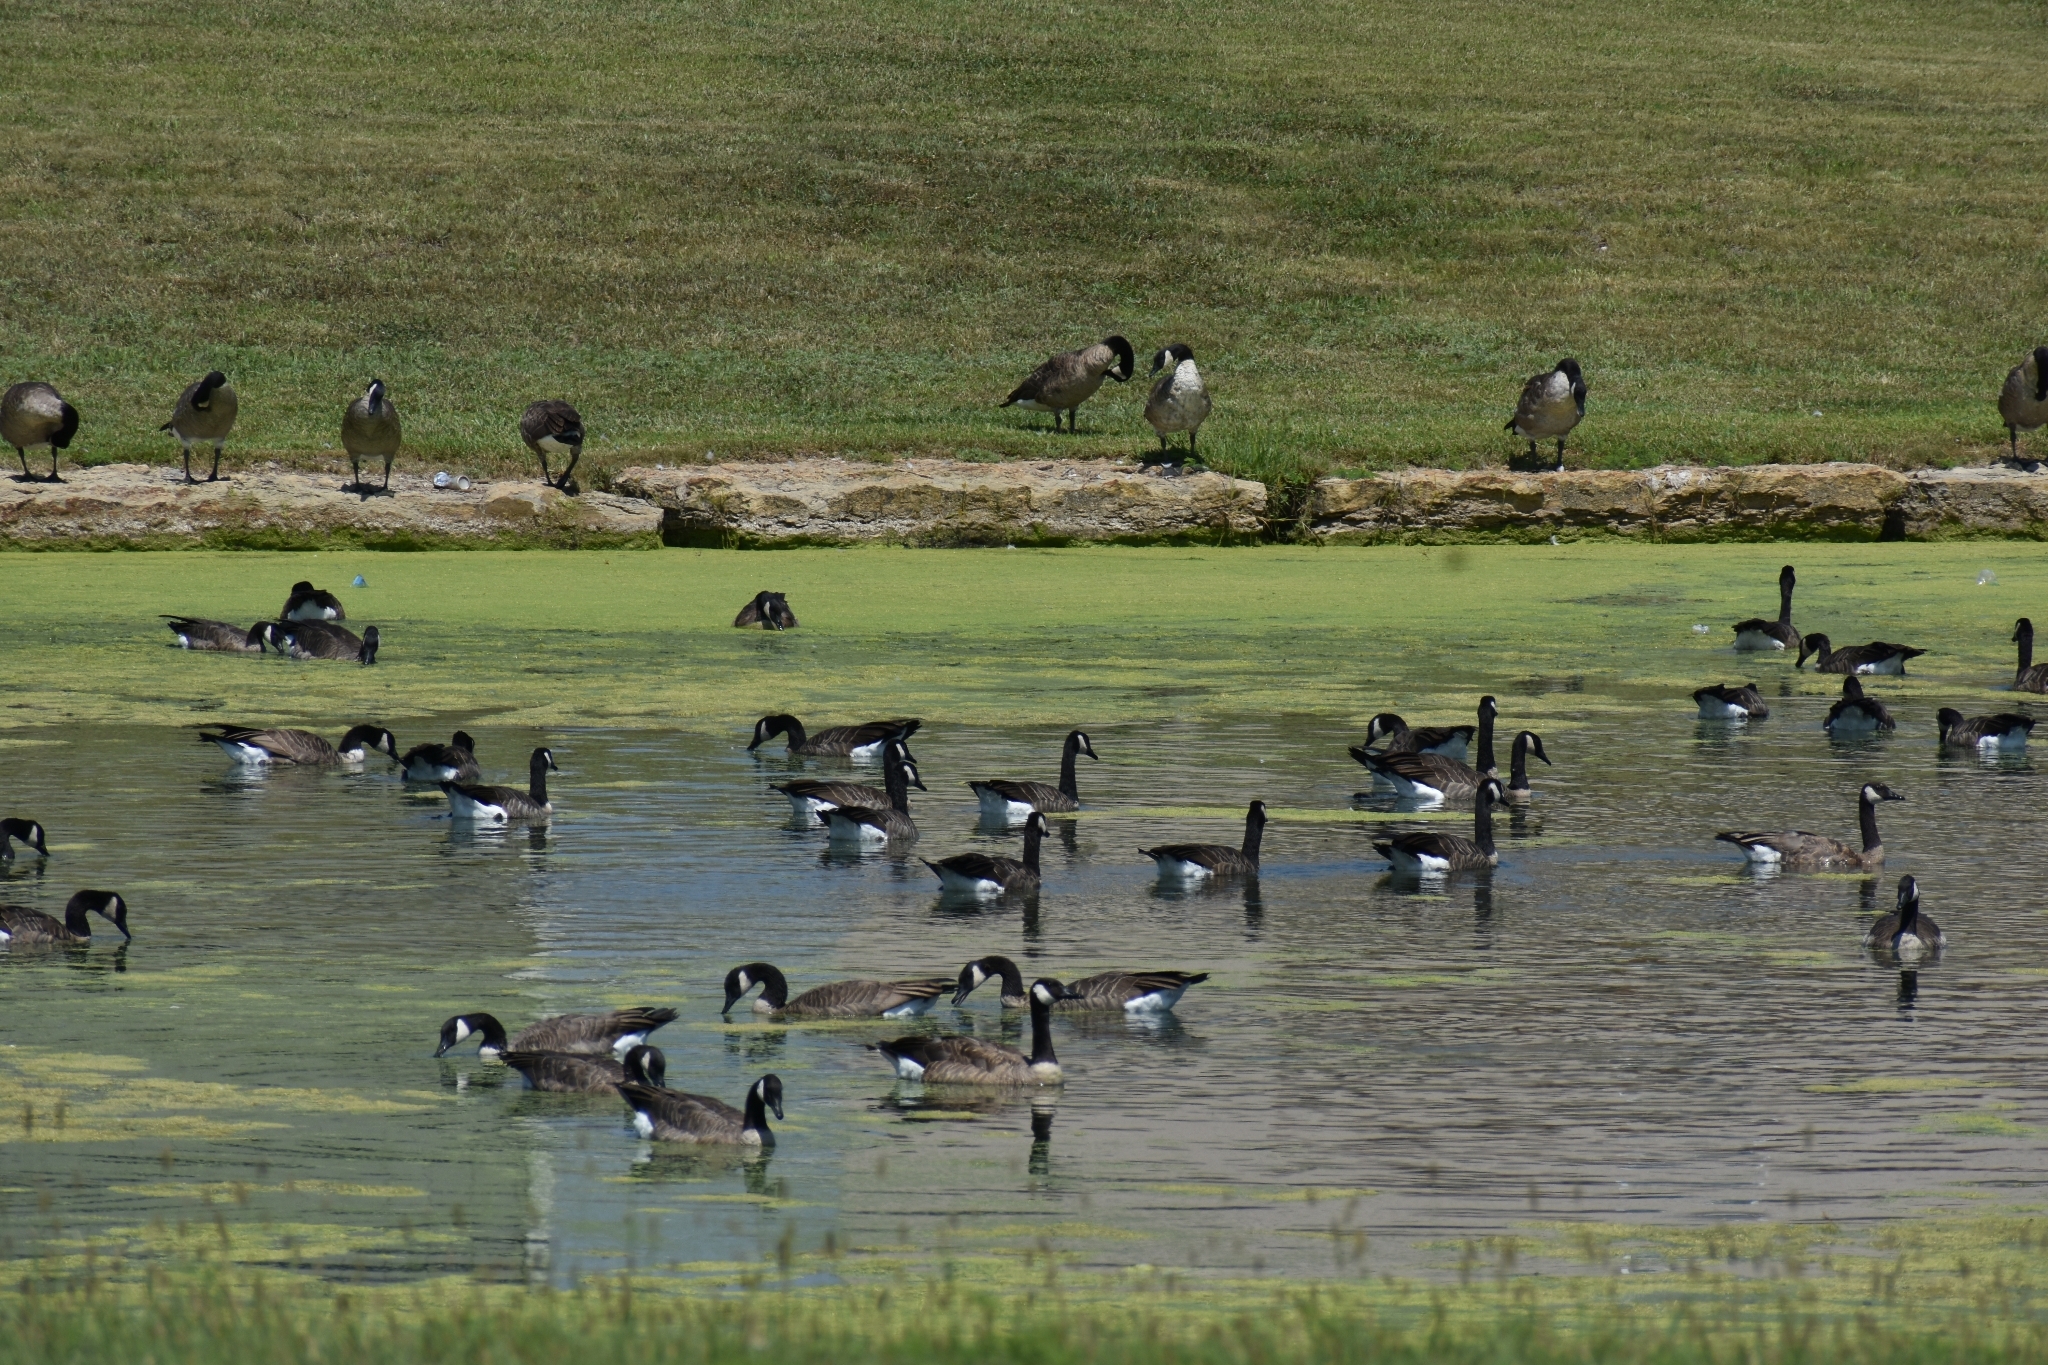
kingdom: Animalia
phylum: Chordata
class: Aves
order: Anseriformes
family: Anatidae
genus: Branta
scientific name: Branta canadensis
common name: Canada goose
